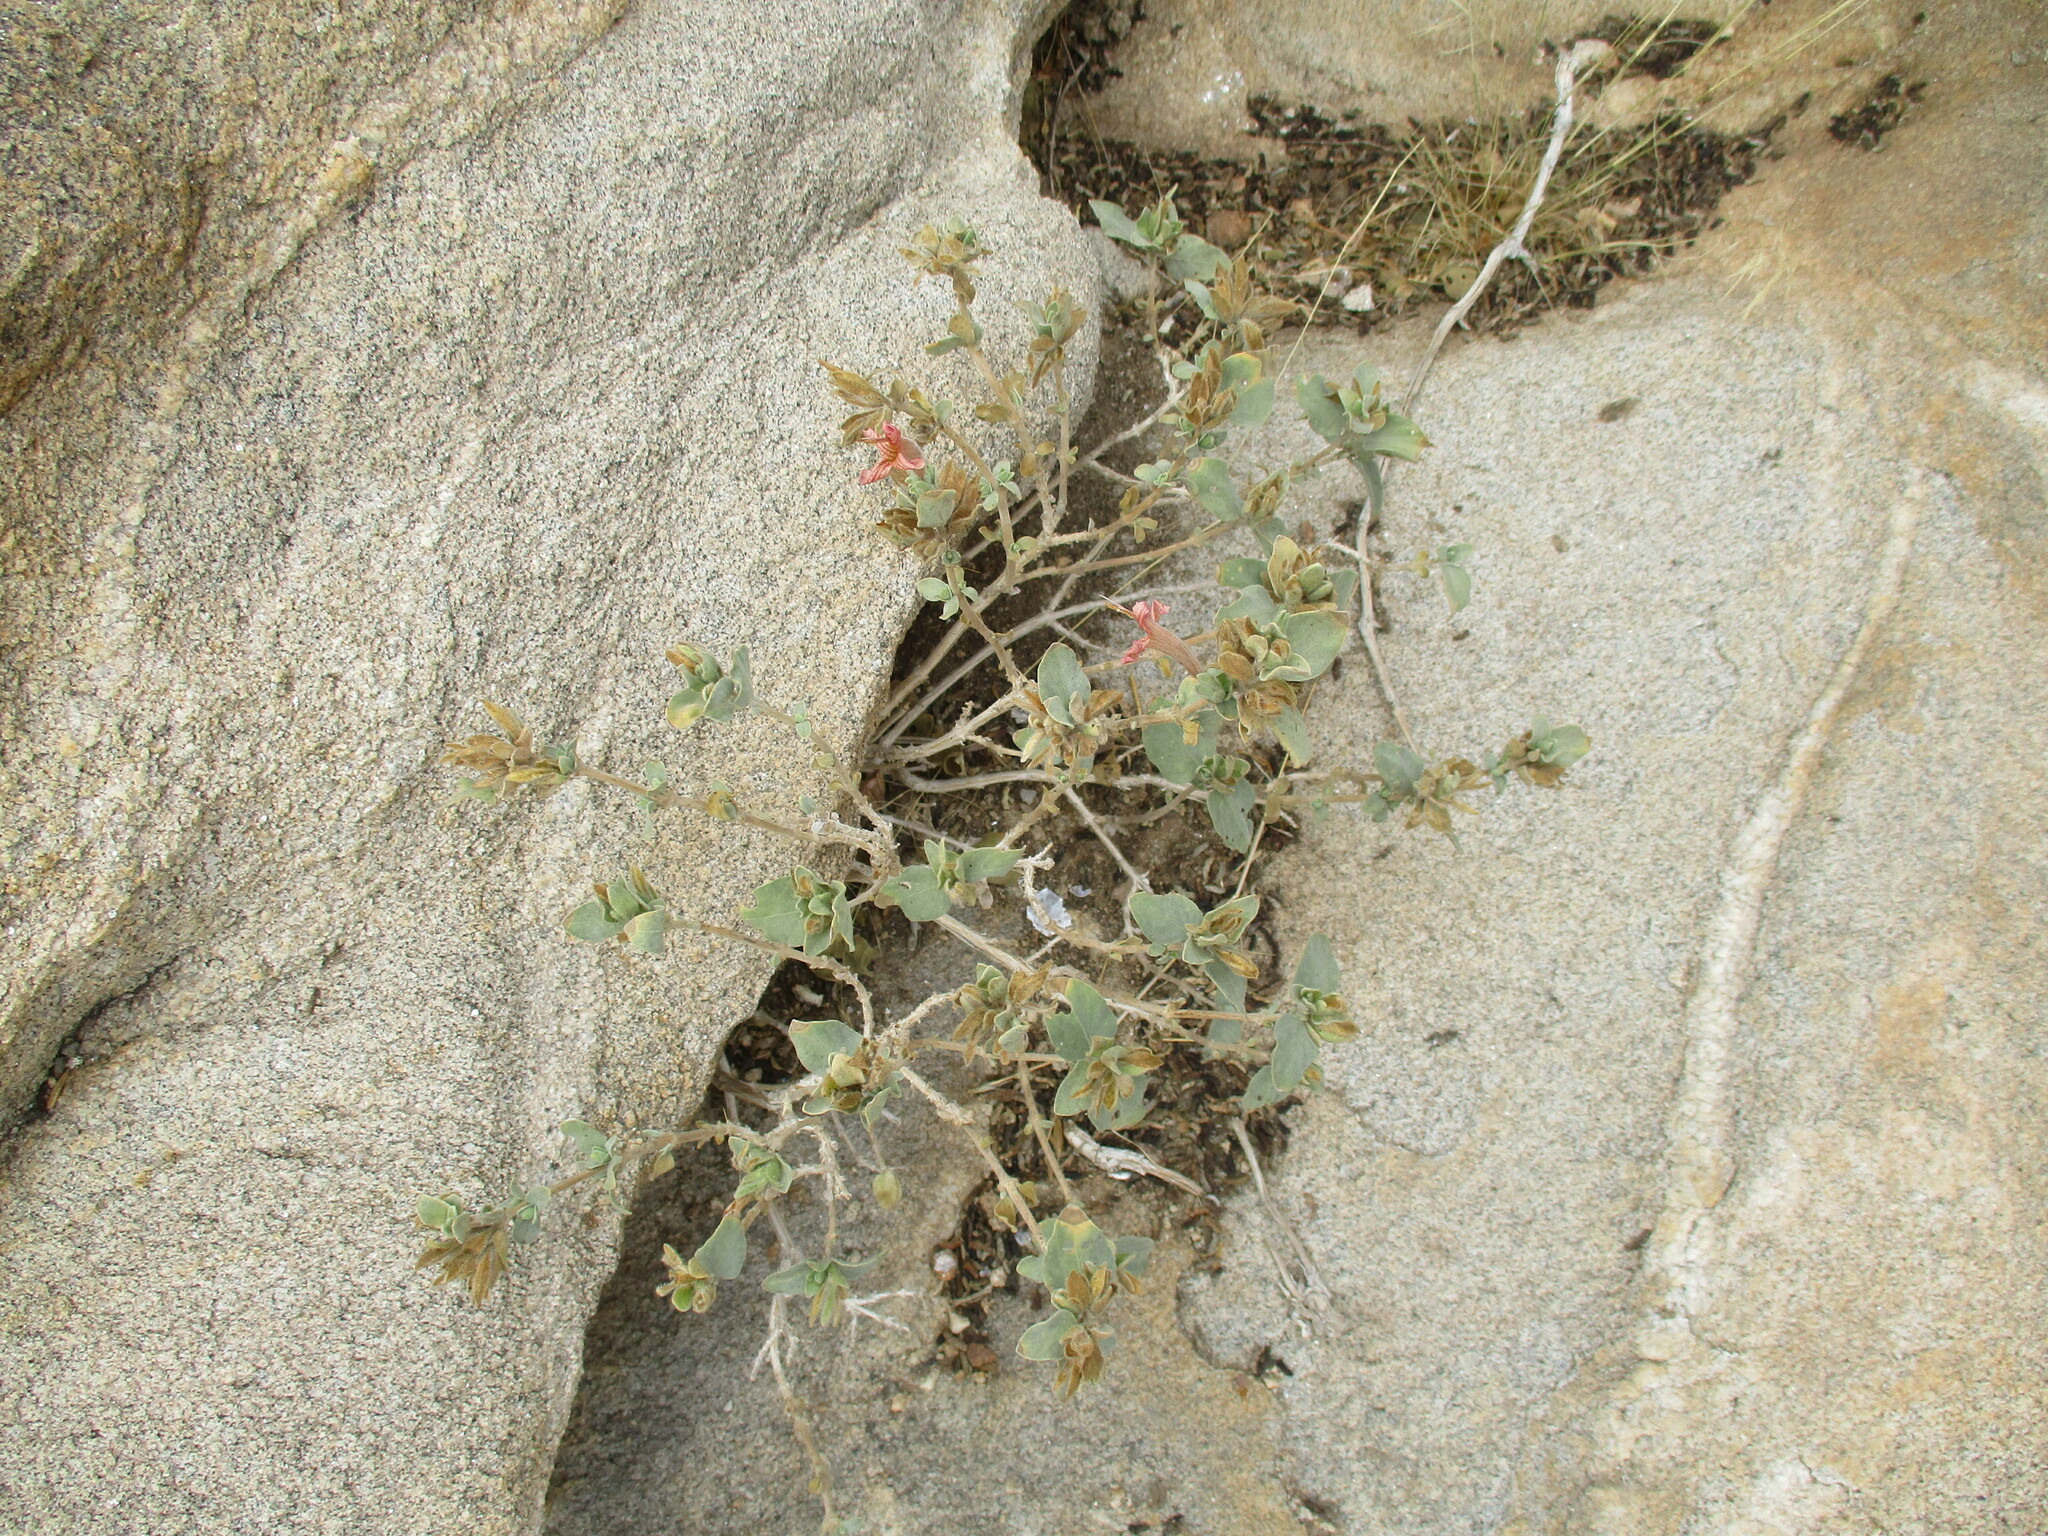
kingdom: Plantae
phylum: Tracheophyta
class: Magnoliopsida
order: Lamiales
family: Acanthaceae
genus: Dinteracanthus
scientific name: Dinteracanthus diversifolius
